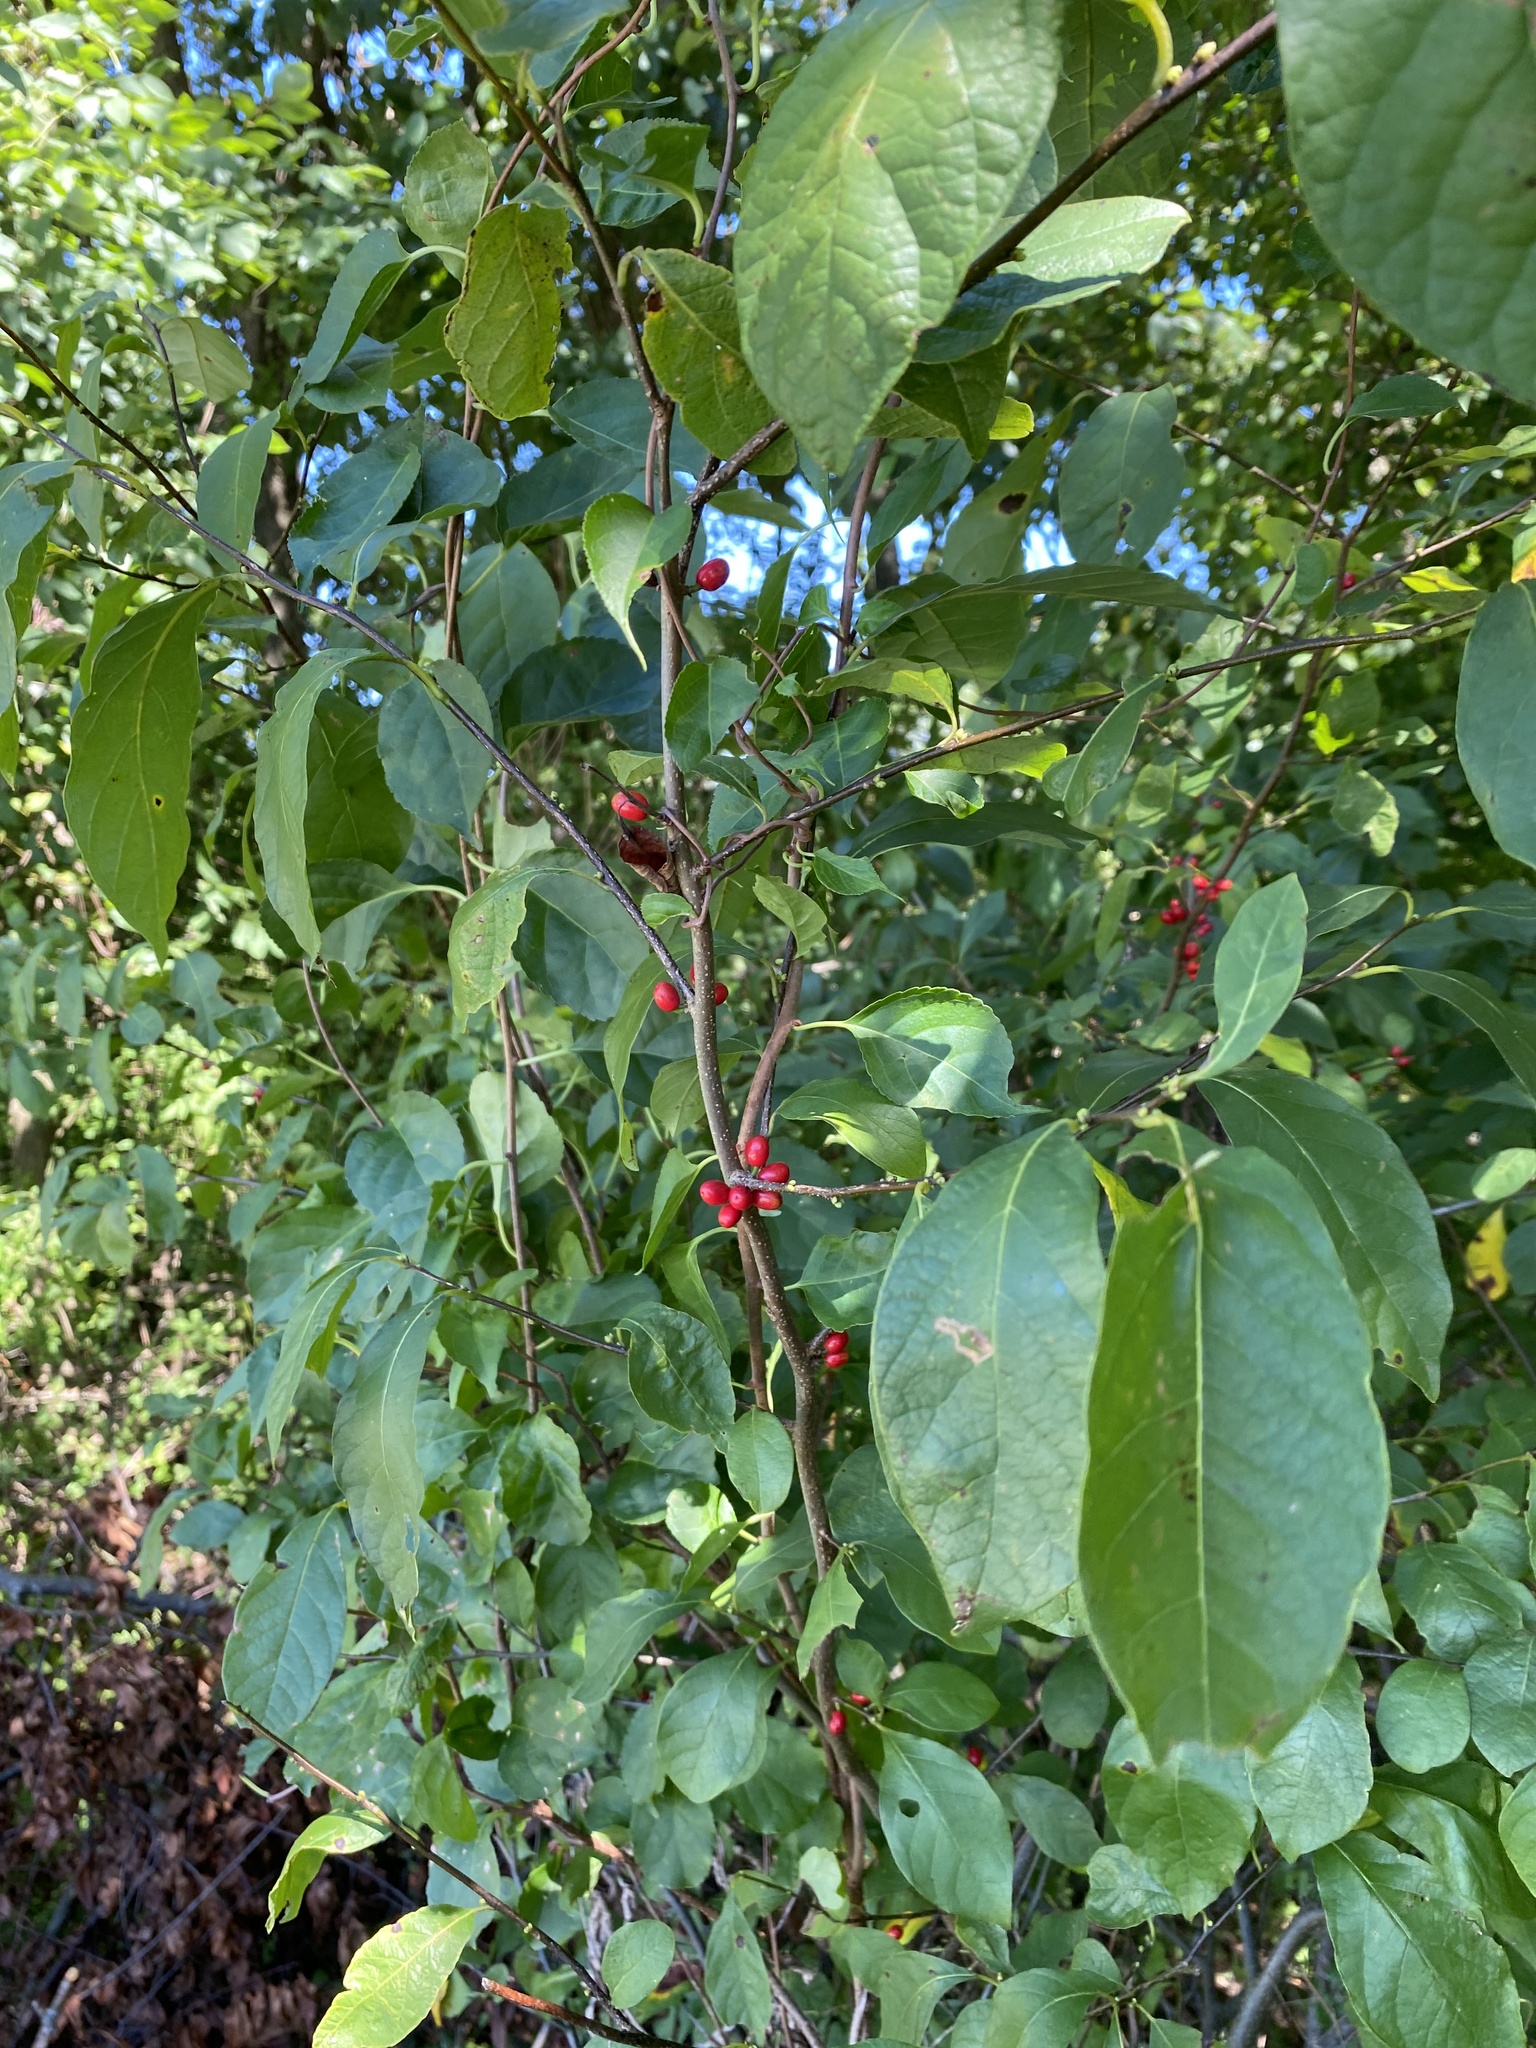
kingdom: Plantae
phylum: Tracheophyta
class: Magnoliopsida
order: Laurales
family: Lauraceae
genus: Lindera
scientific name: Lindera benzoin
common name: Spicebush
